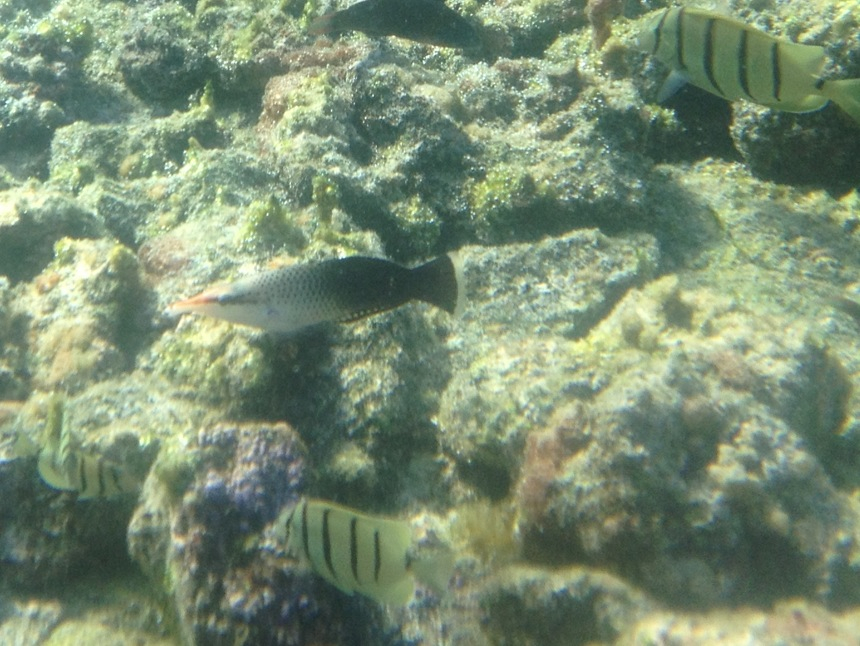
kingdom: Animalia
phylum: Chordata
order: Perciformes
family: Labridae
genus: Gomphosus
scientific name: Gomphosus varius
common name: Bird wrasse
